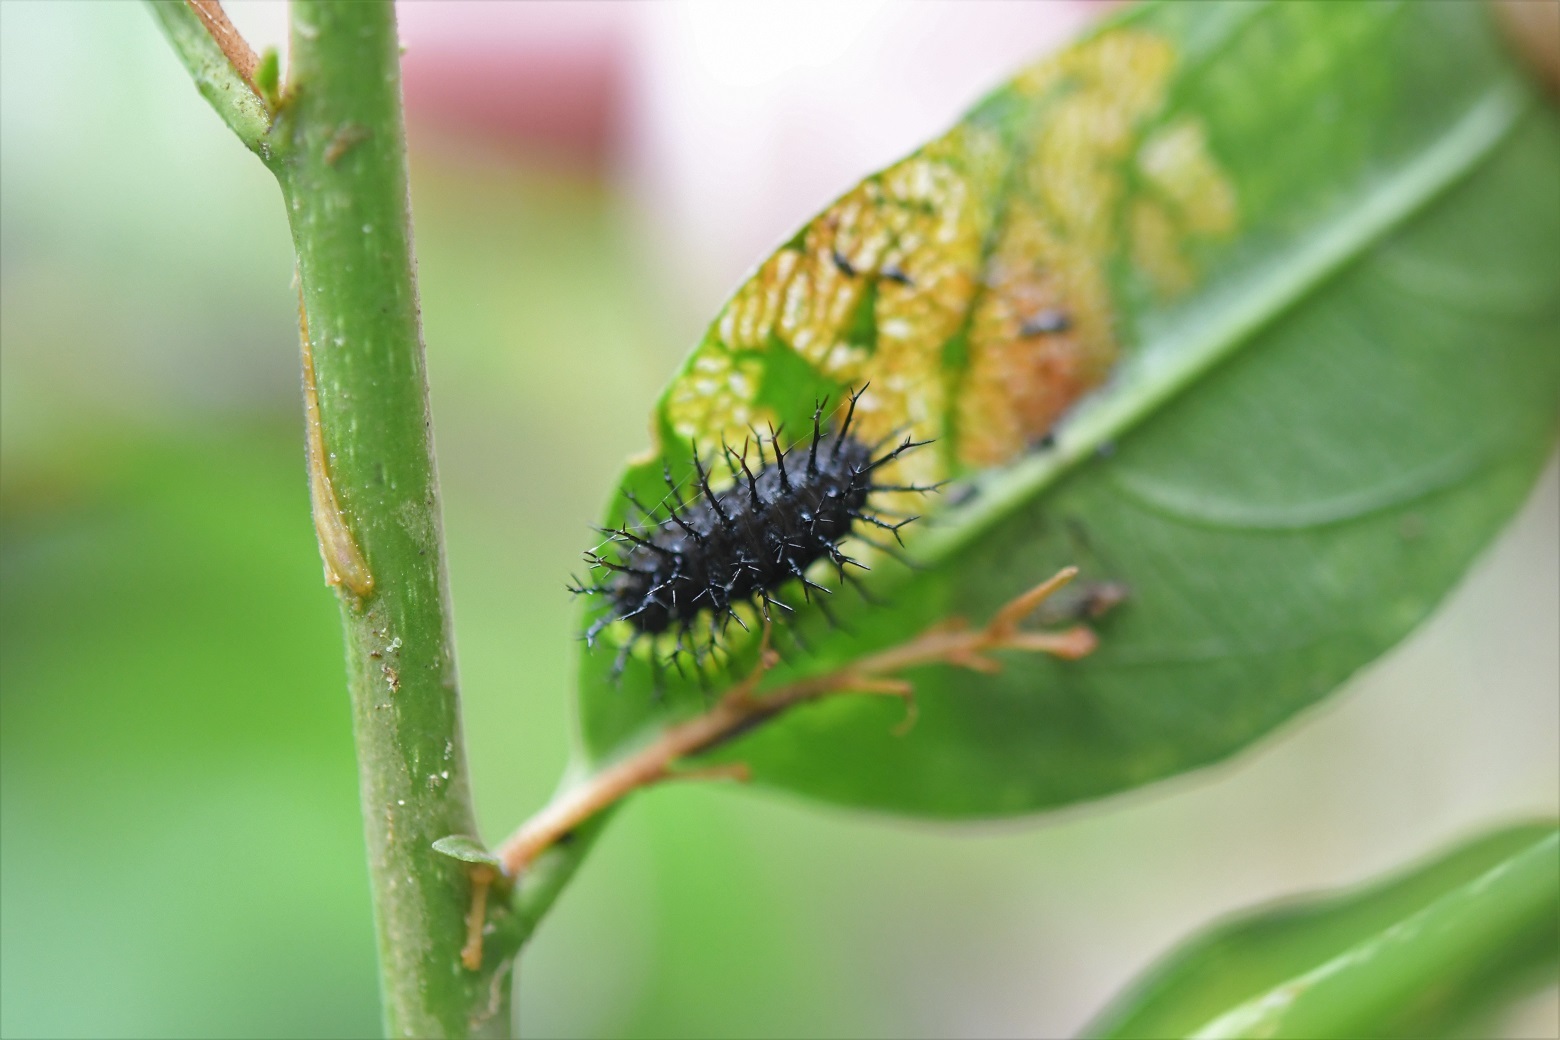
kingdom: Animalia
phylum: Arthropoda
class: Insecta
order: Coleoptera
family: Coccinellidae
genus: Epilachna
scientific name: Epilachna
